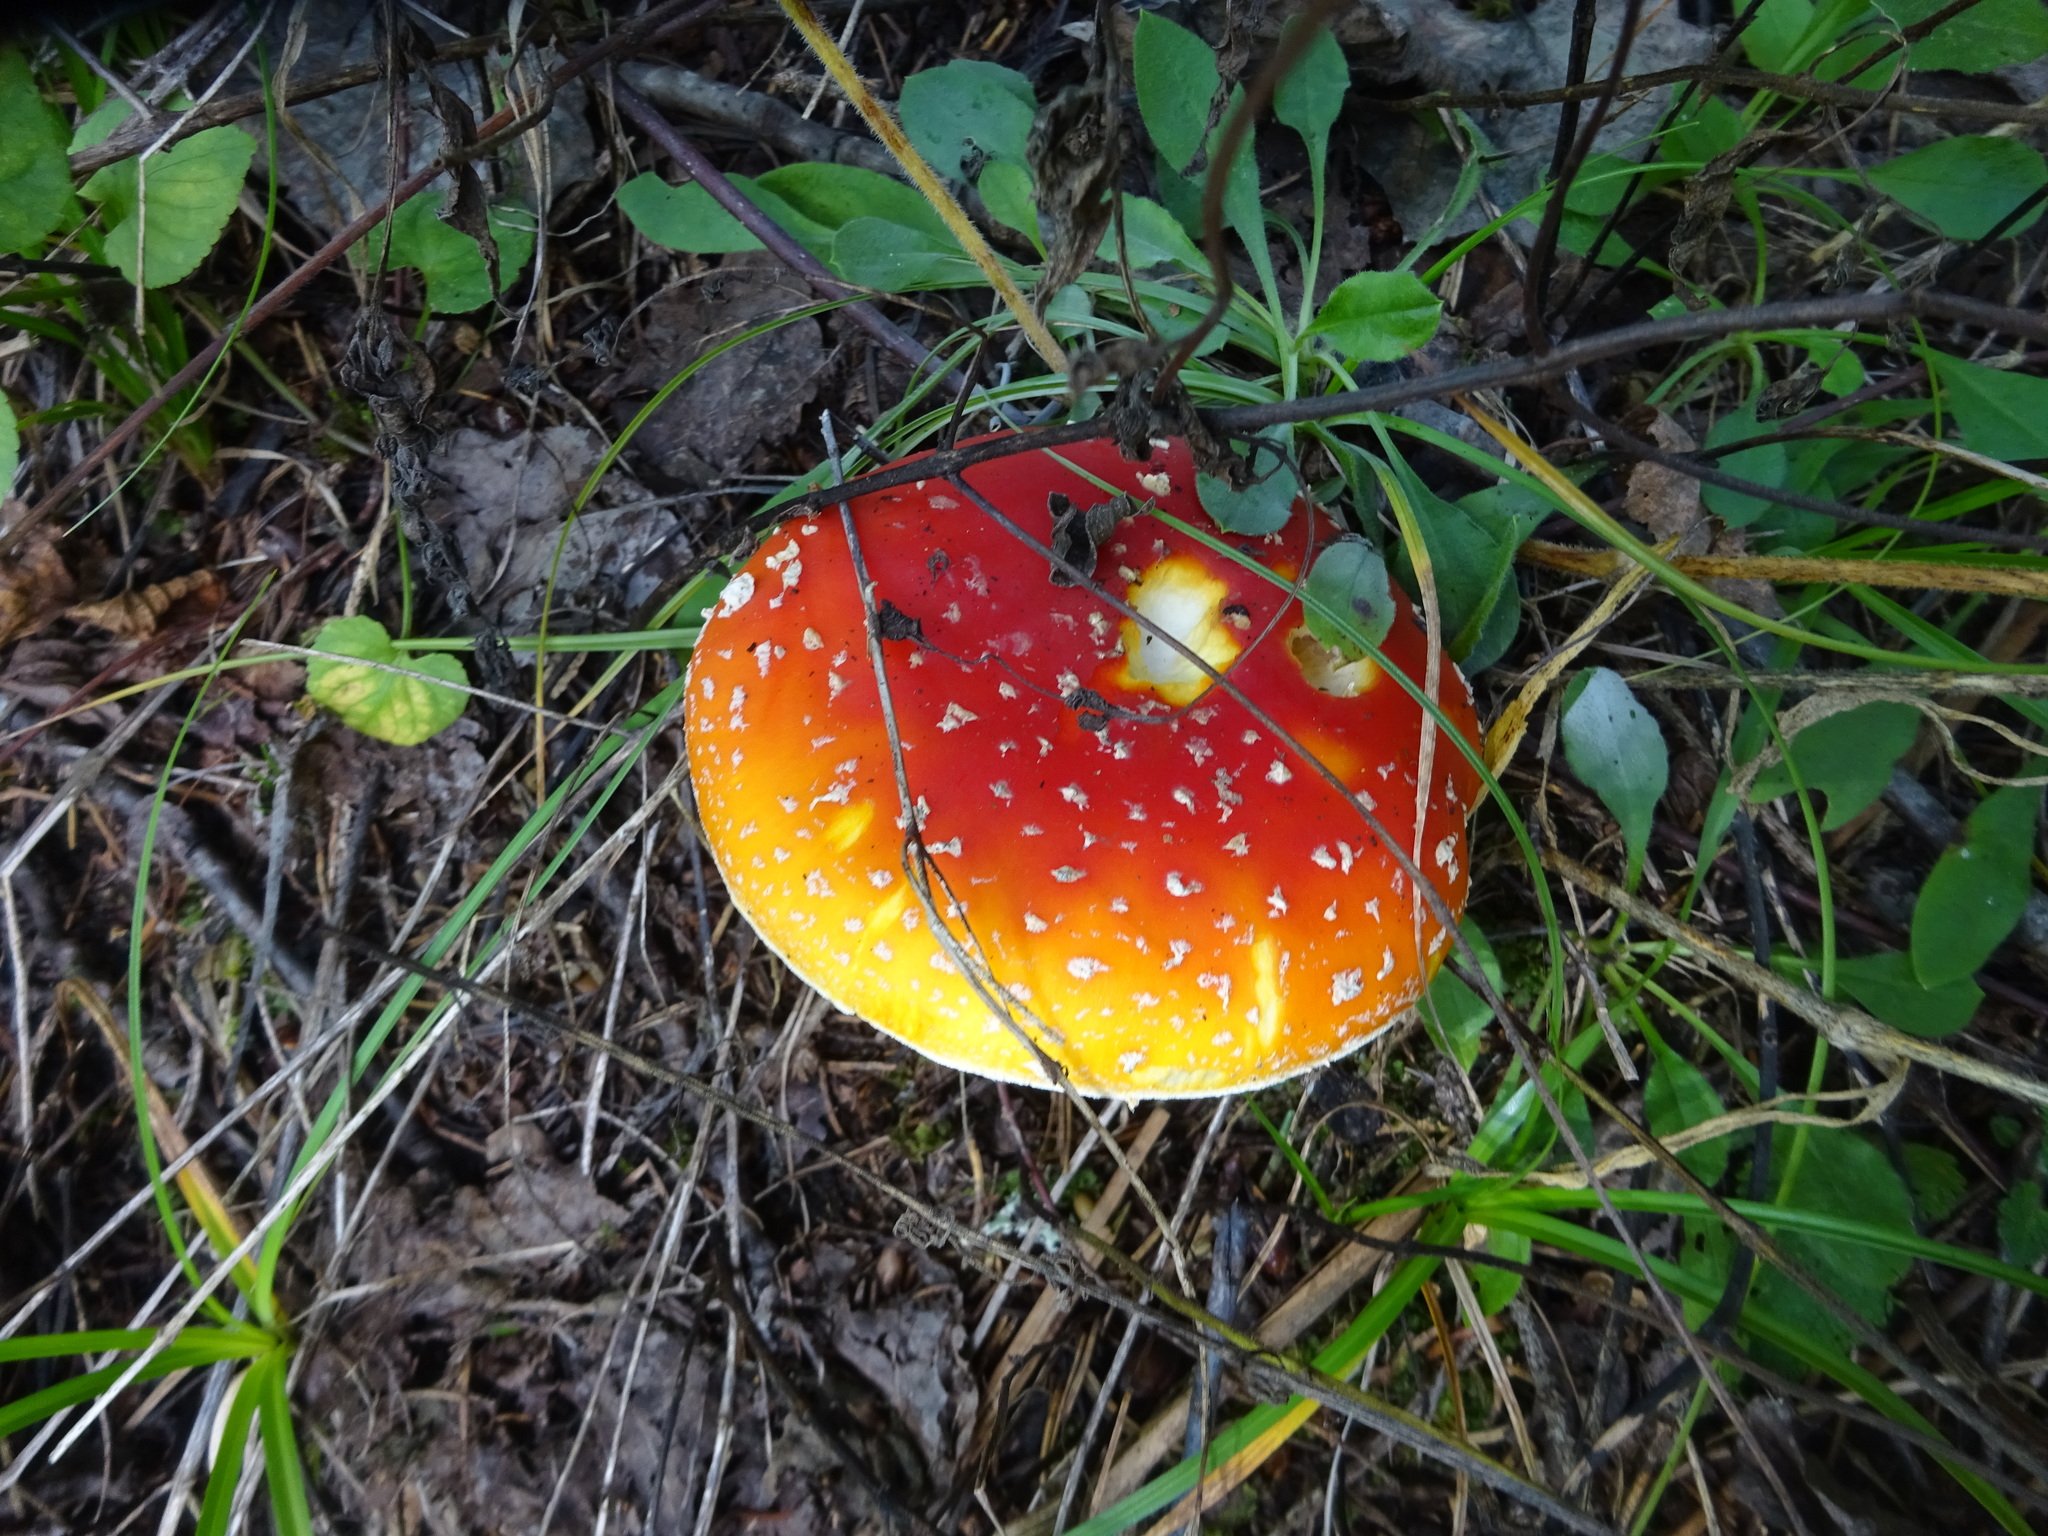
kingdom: Fungi
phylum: Basidiomycota
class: Agaricomycetes
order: Agaricales
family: Amanitaceae
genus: Amanita
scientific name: Amanita muscaria
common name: Fly agaric
